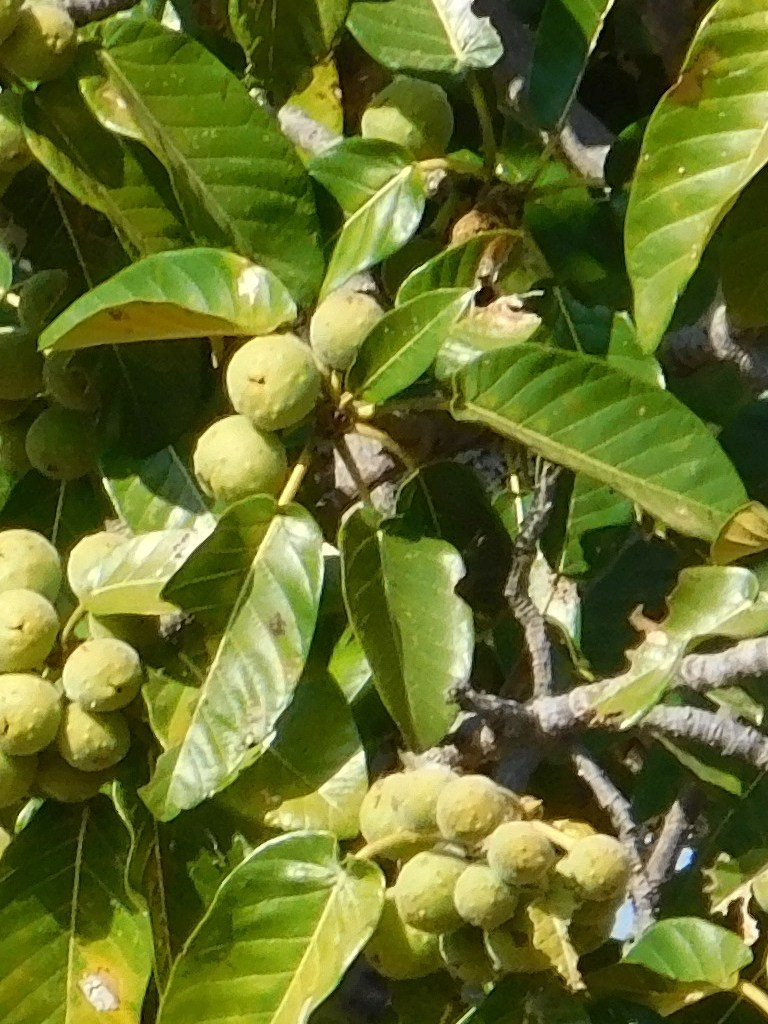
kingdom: Plantae
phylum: Tracheophyta
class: Magnoliopsida
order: Rosales
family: Moraceae
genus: Ficus
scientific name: Ficus bussei
